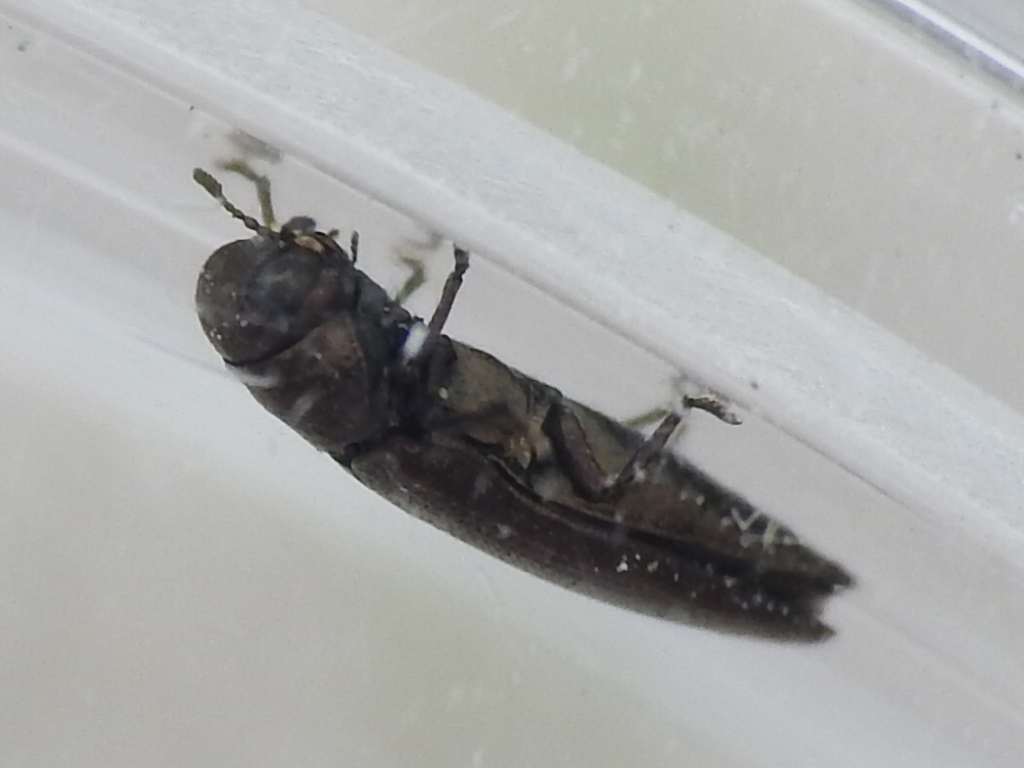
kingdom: Animalia
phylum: Arthropoda
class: Insecta
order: Coleoptera
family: Buprestidae
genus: Taphrocerus
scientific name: Taphrocerus agriloides
